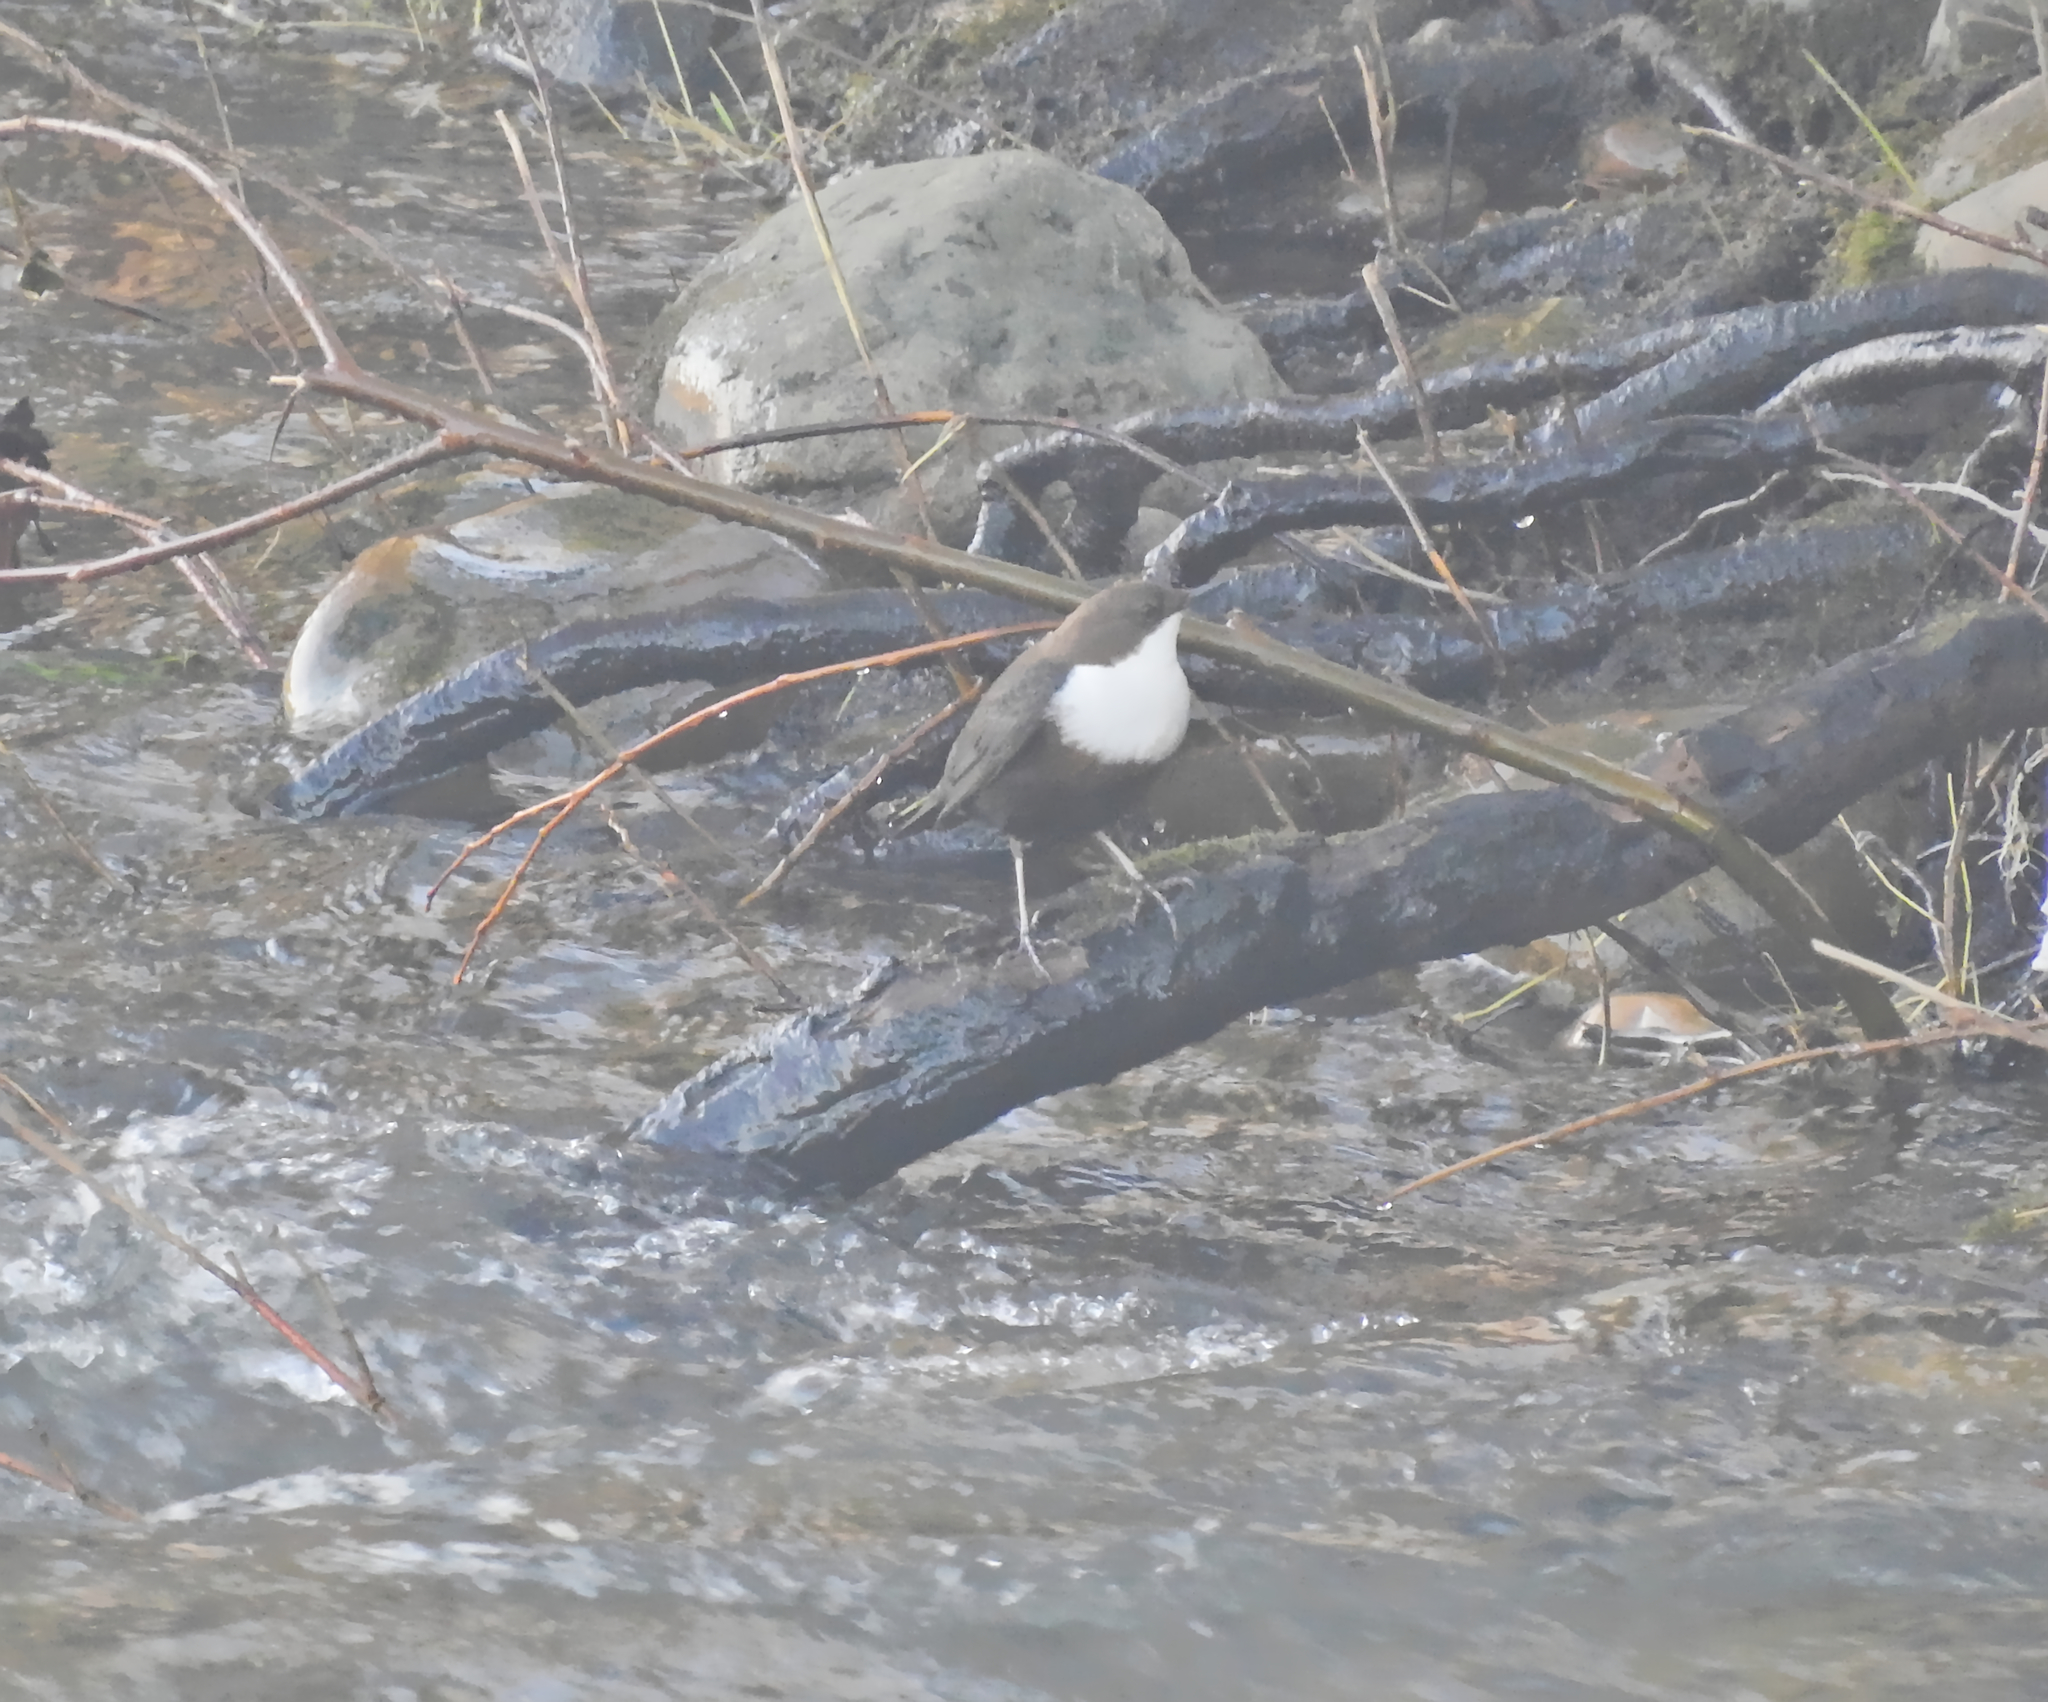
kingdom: Animalia
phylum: Chordata
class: Aves
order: Passeriformes
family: Cinclidae
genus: Cinclus
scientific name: Cinclus cinclus
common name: White-throated dipper
